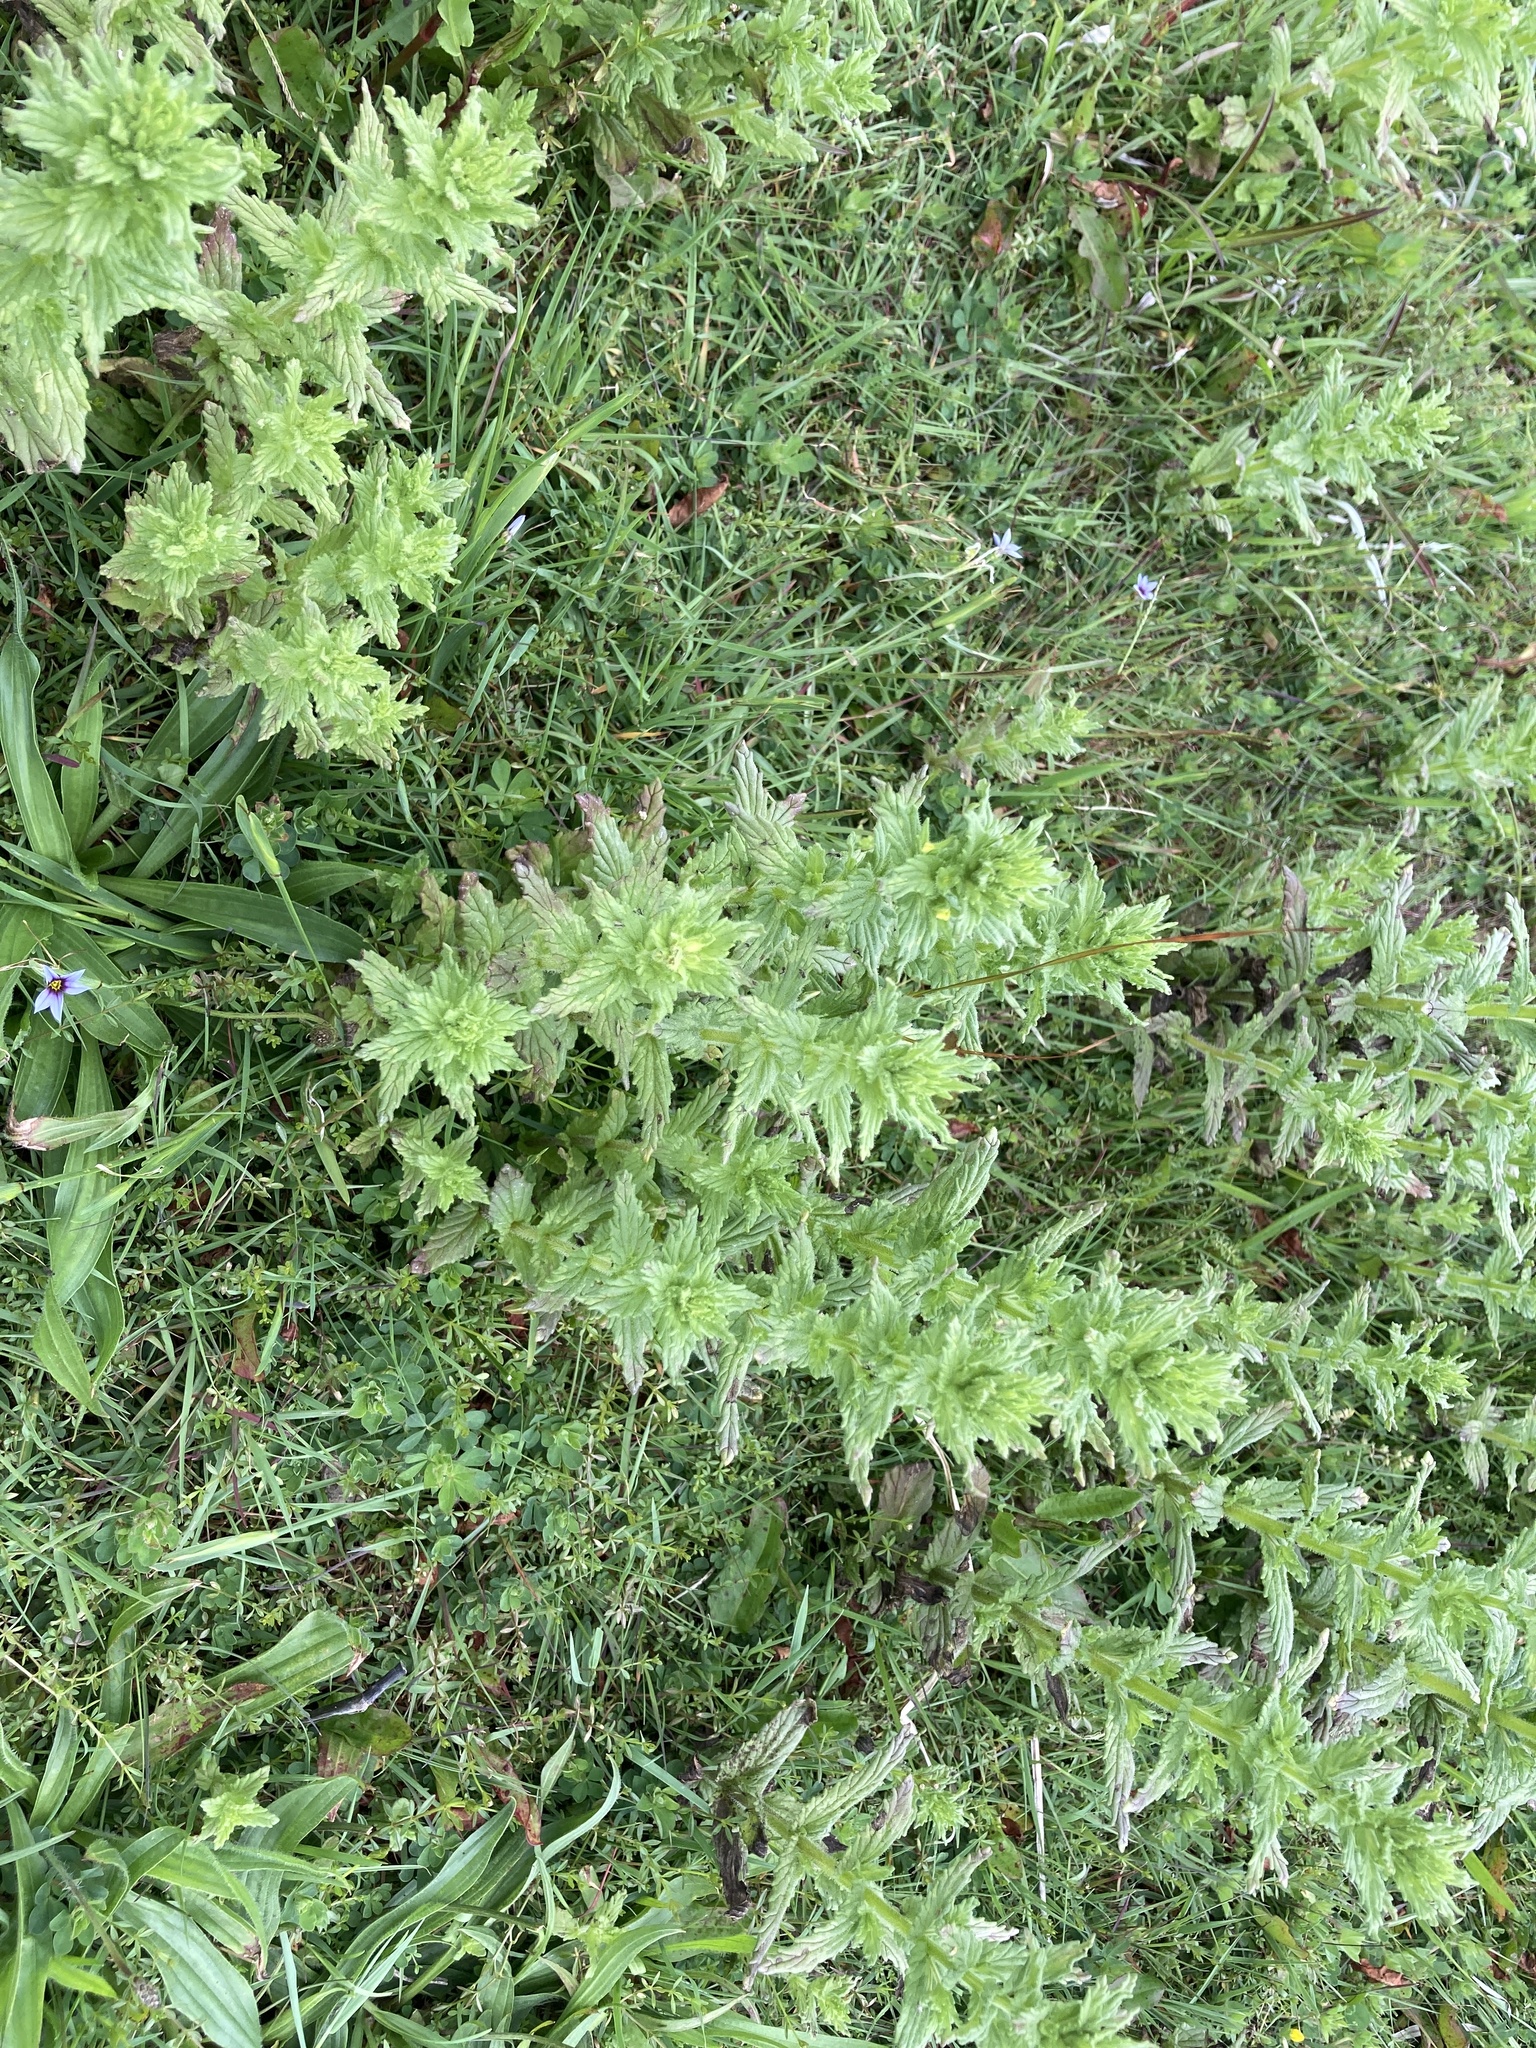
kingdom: Plantae
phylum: Tracheophyta
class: Magnoliopsida
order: Lamiales
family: Orobanchaceae
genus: Bellardia
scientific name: Bellardia viscosa
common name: Sticky parentucellia
